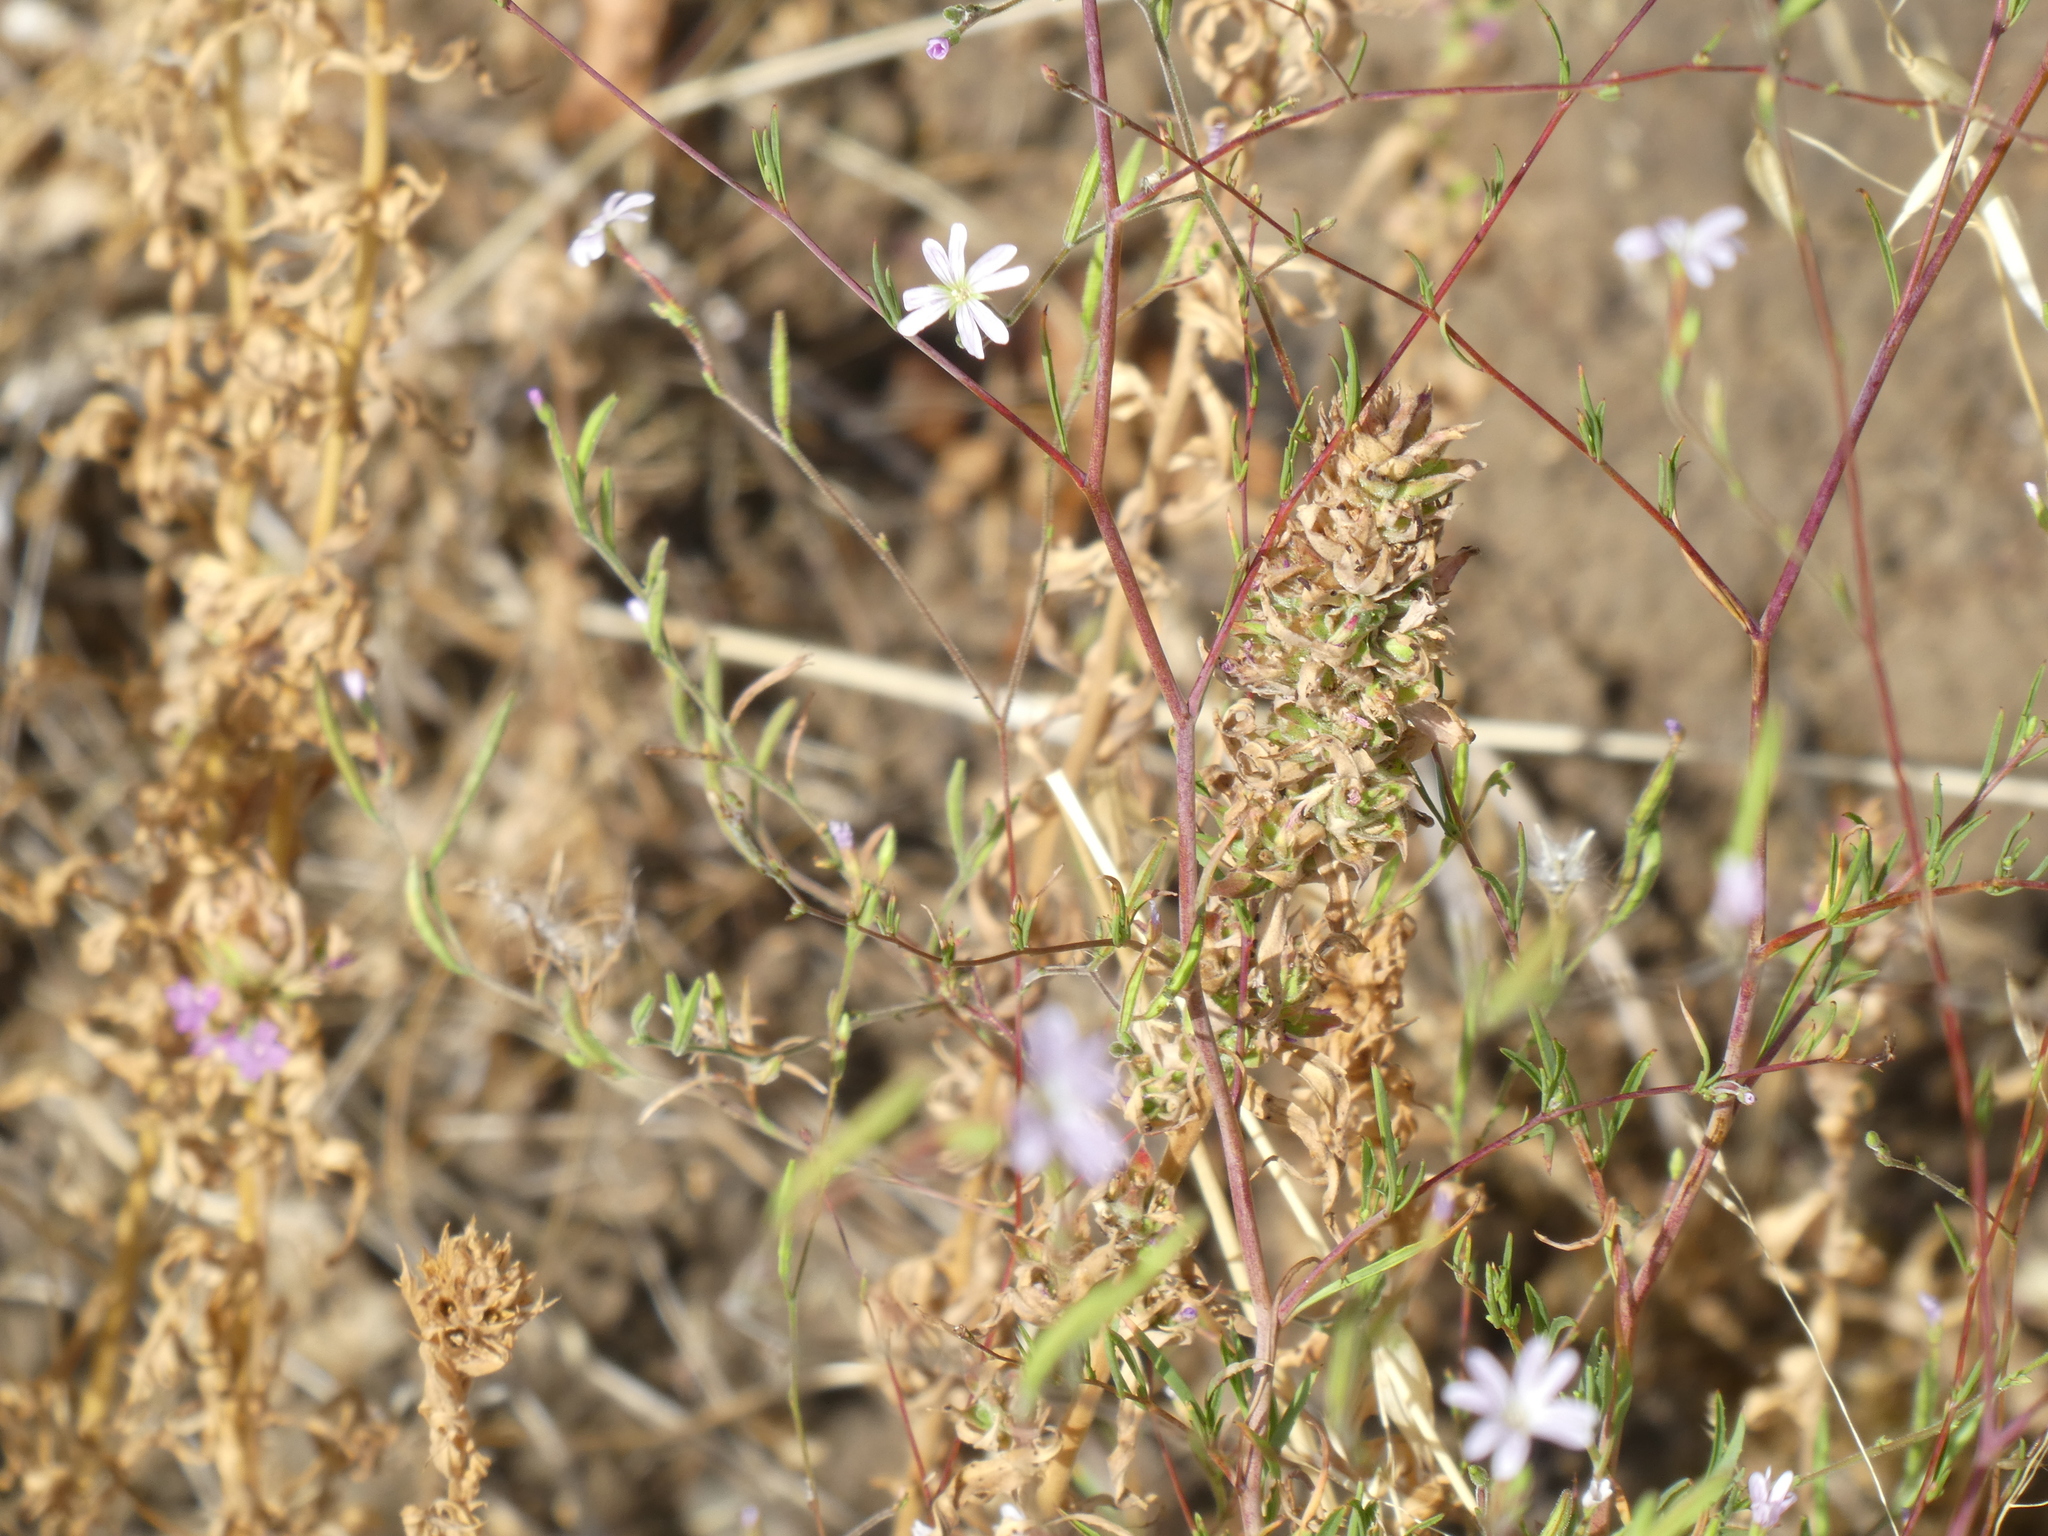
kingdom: Plantae
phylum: Tracheophyta
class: Magnoliopsida
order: Myrtales
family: Onagraceae
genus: Epilobium
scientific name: Epilobium brachycarpum
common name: Annual willowherb
